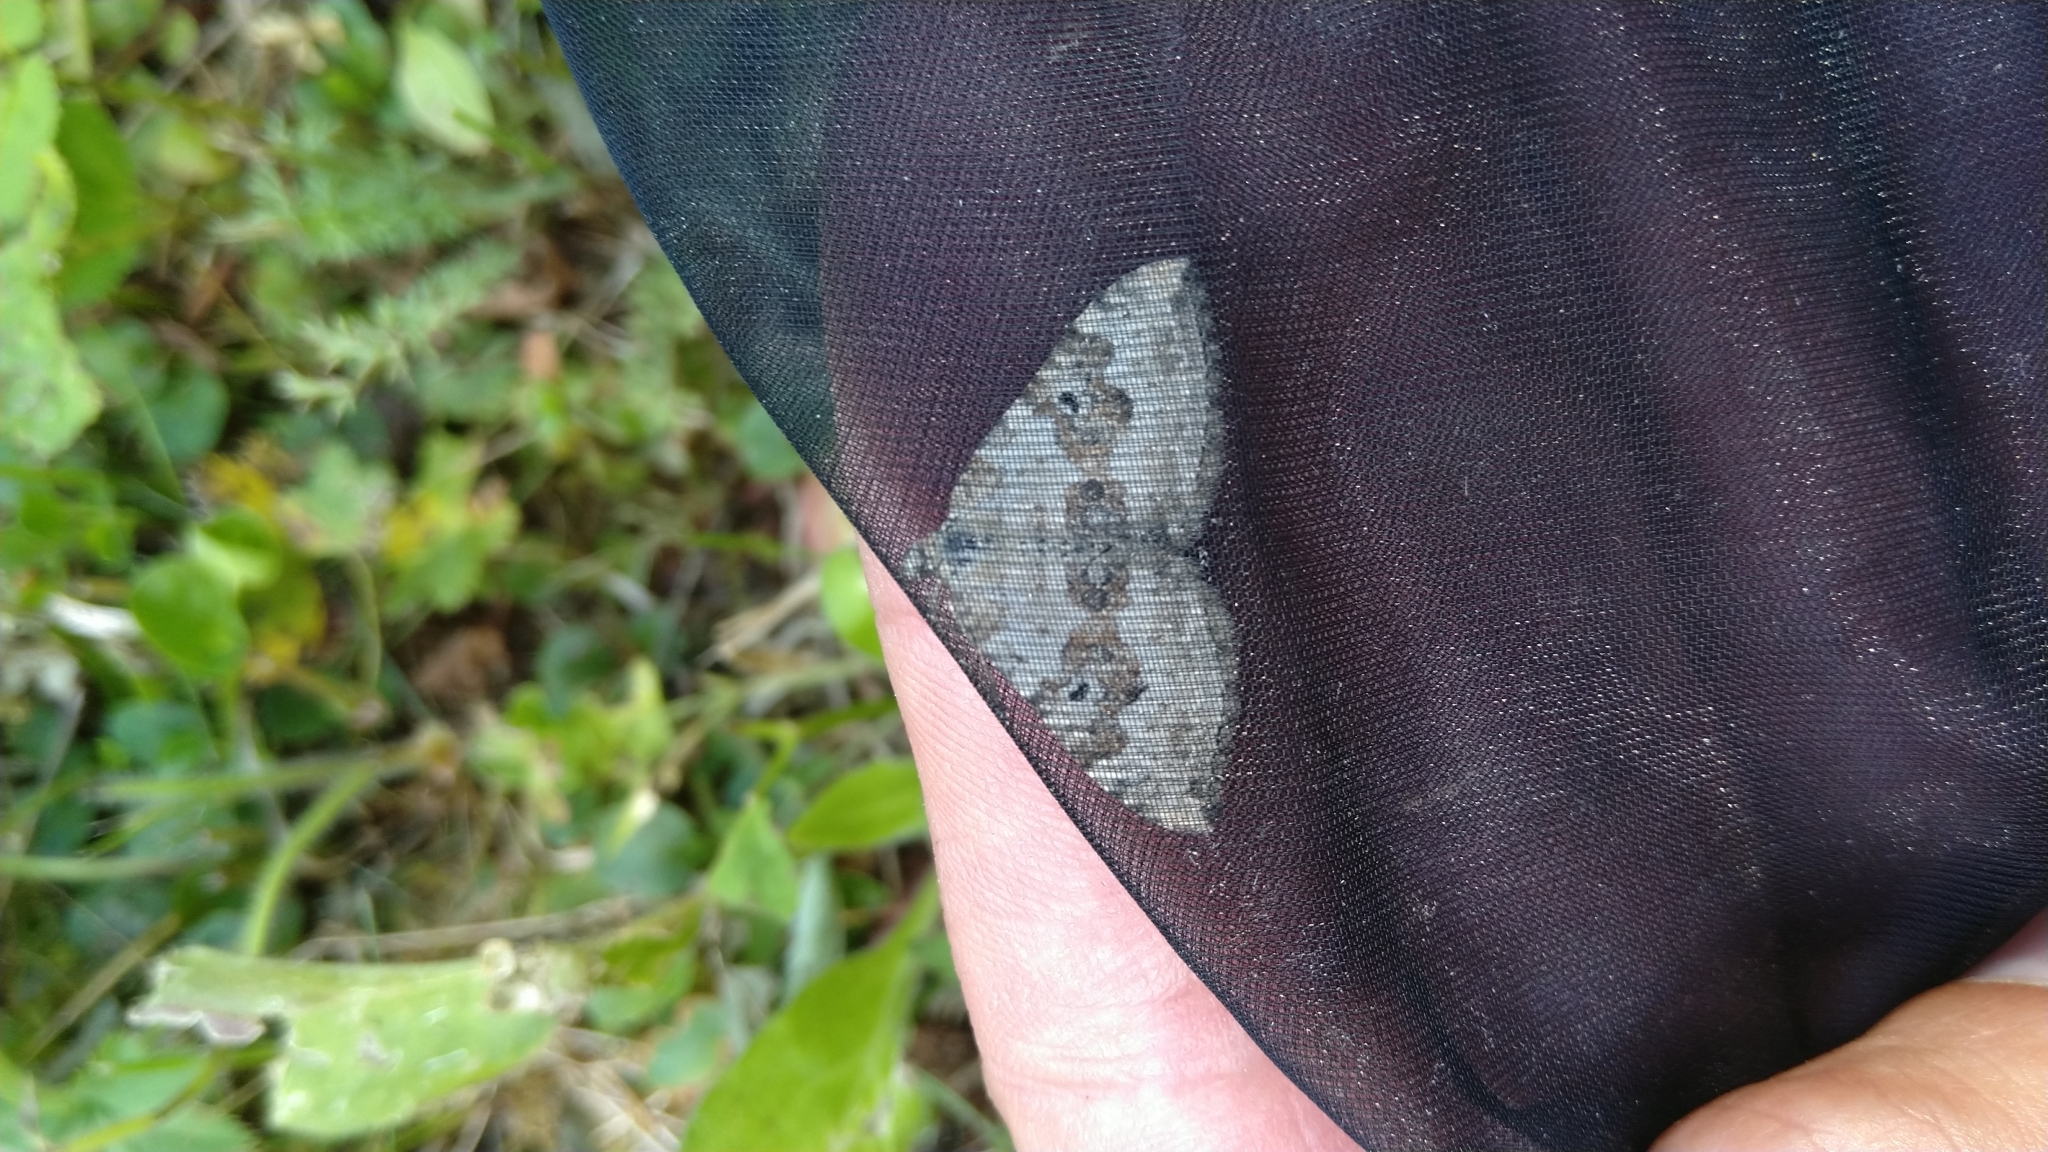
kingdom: Animalia
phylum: Arthropoda
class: Insecta
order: Lepidoptera
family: Geometridae
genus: Xanthorhoe
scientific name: Xanthorhoe montanata
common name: Silver-ground carpet
